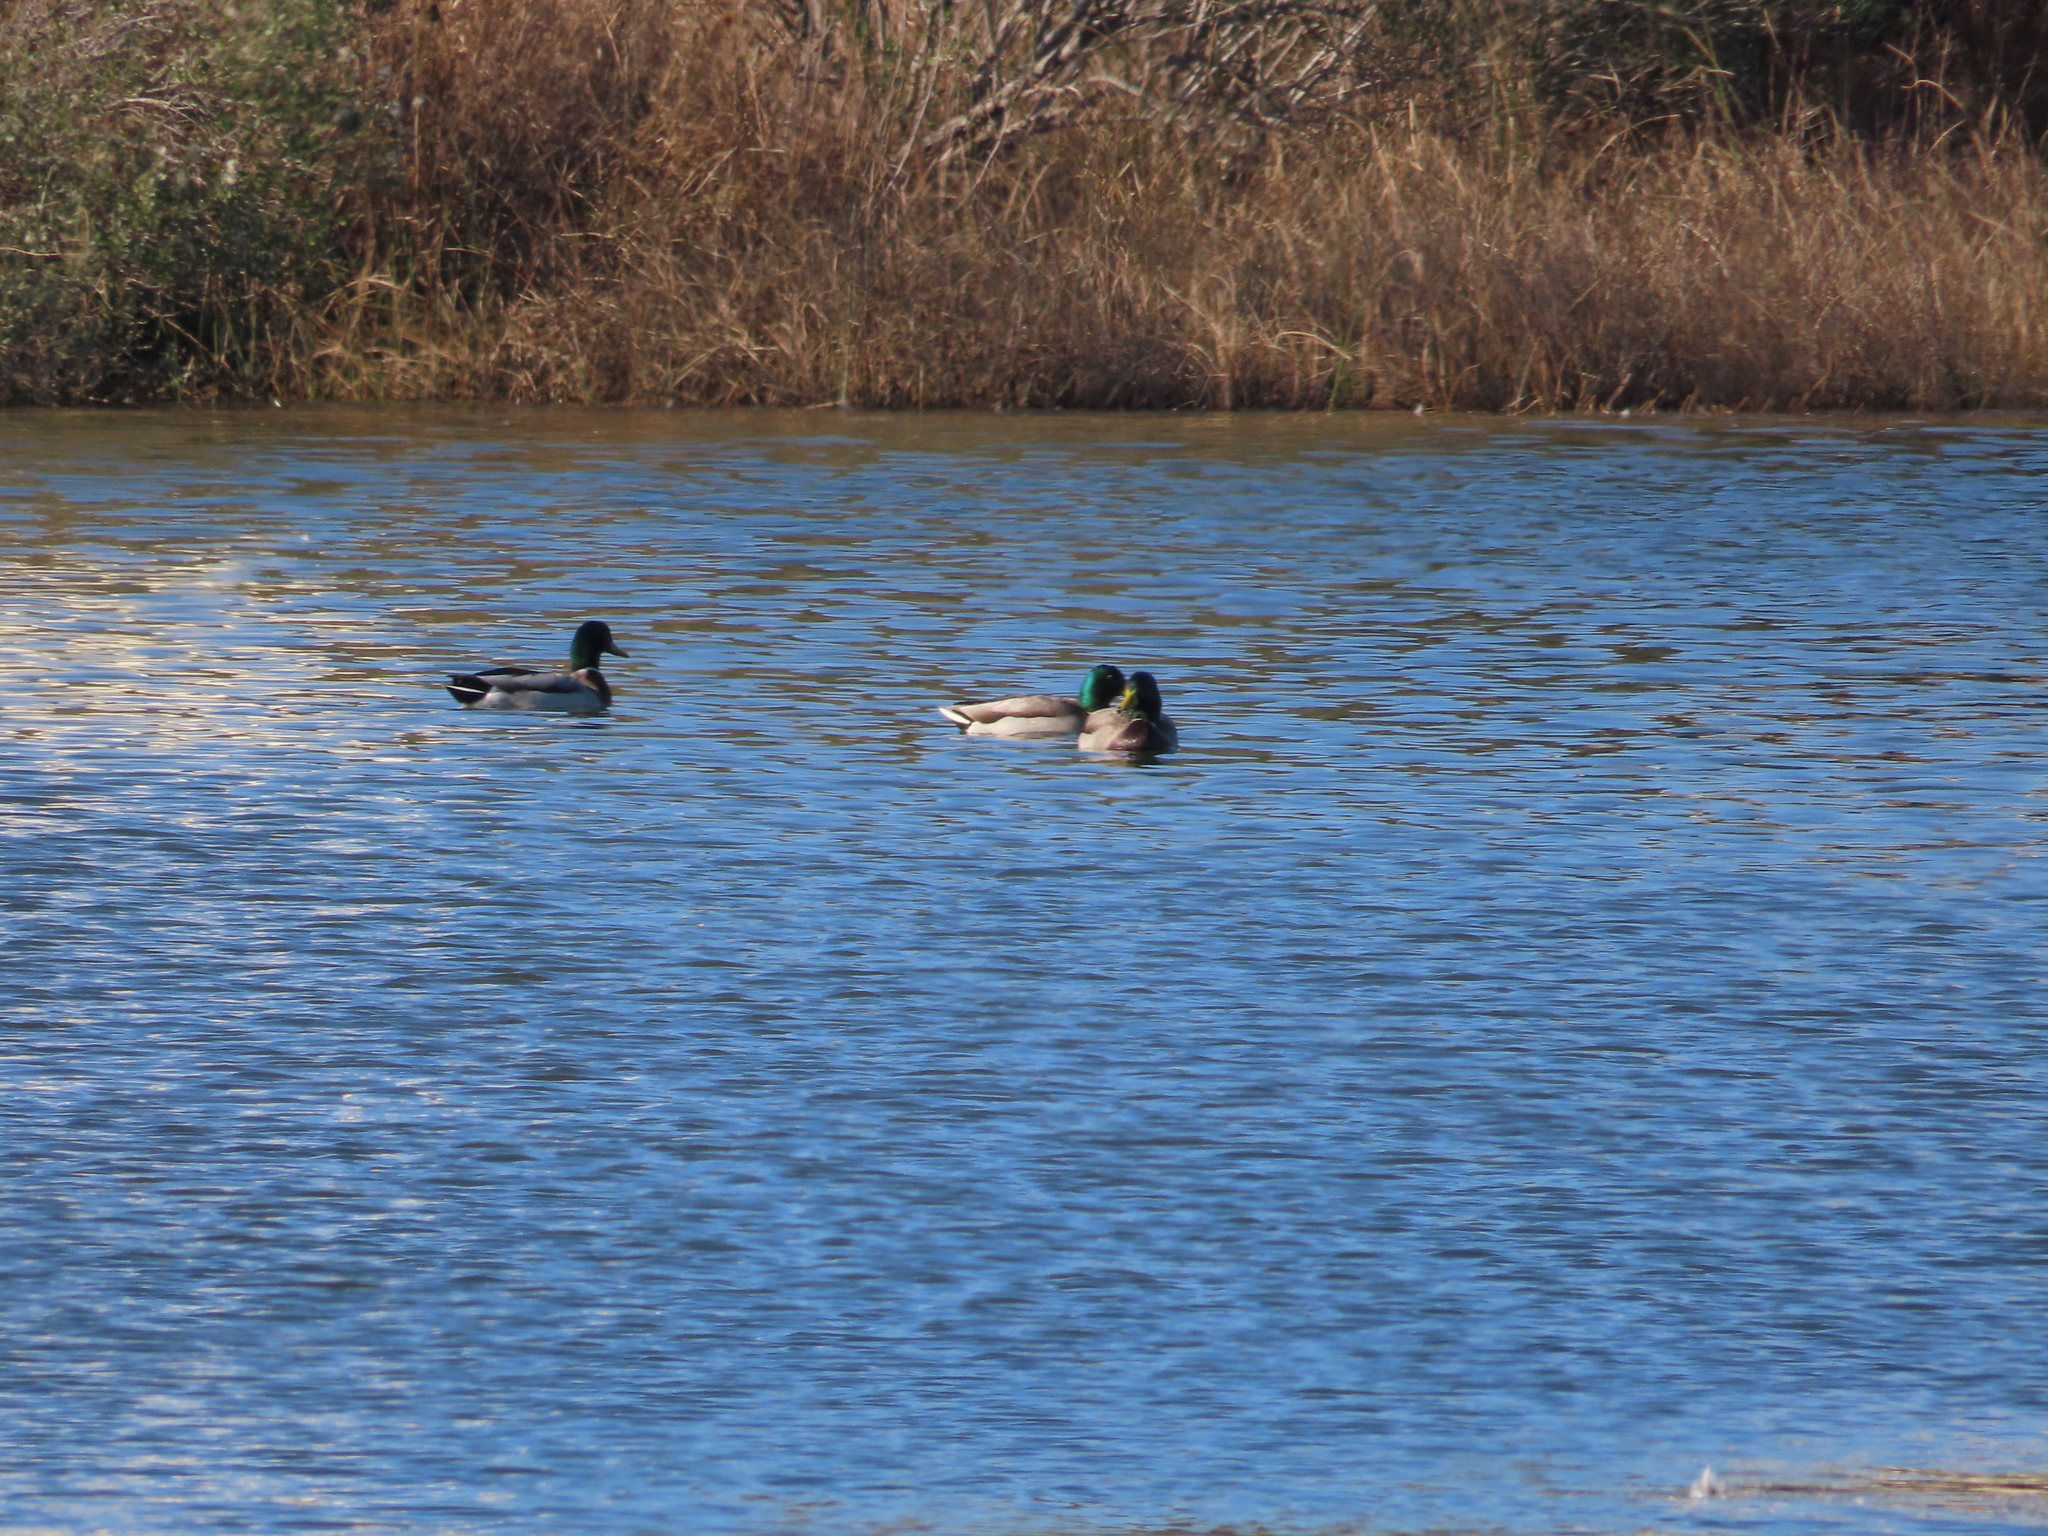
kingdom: Animalia
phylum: Chordata
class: Aves
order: Anseriformes
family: Anatidae
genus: Anas
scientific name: Anas platyrhynchos
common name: Mallard
